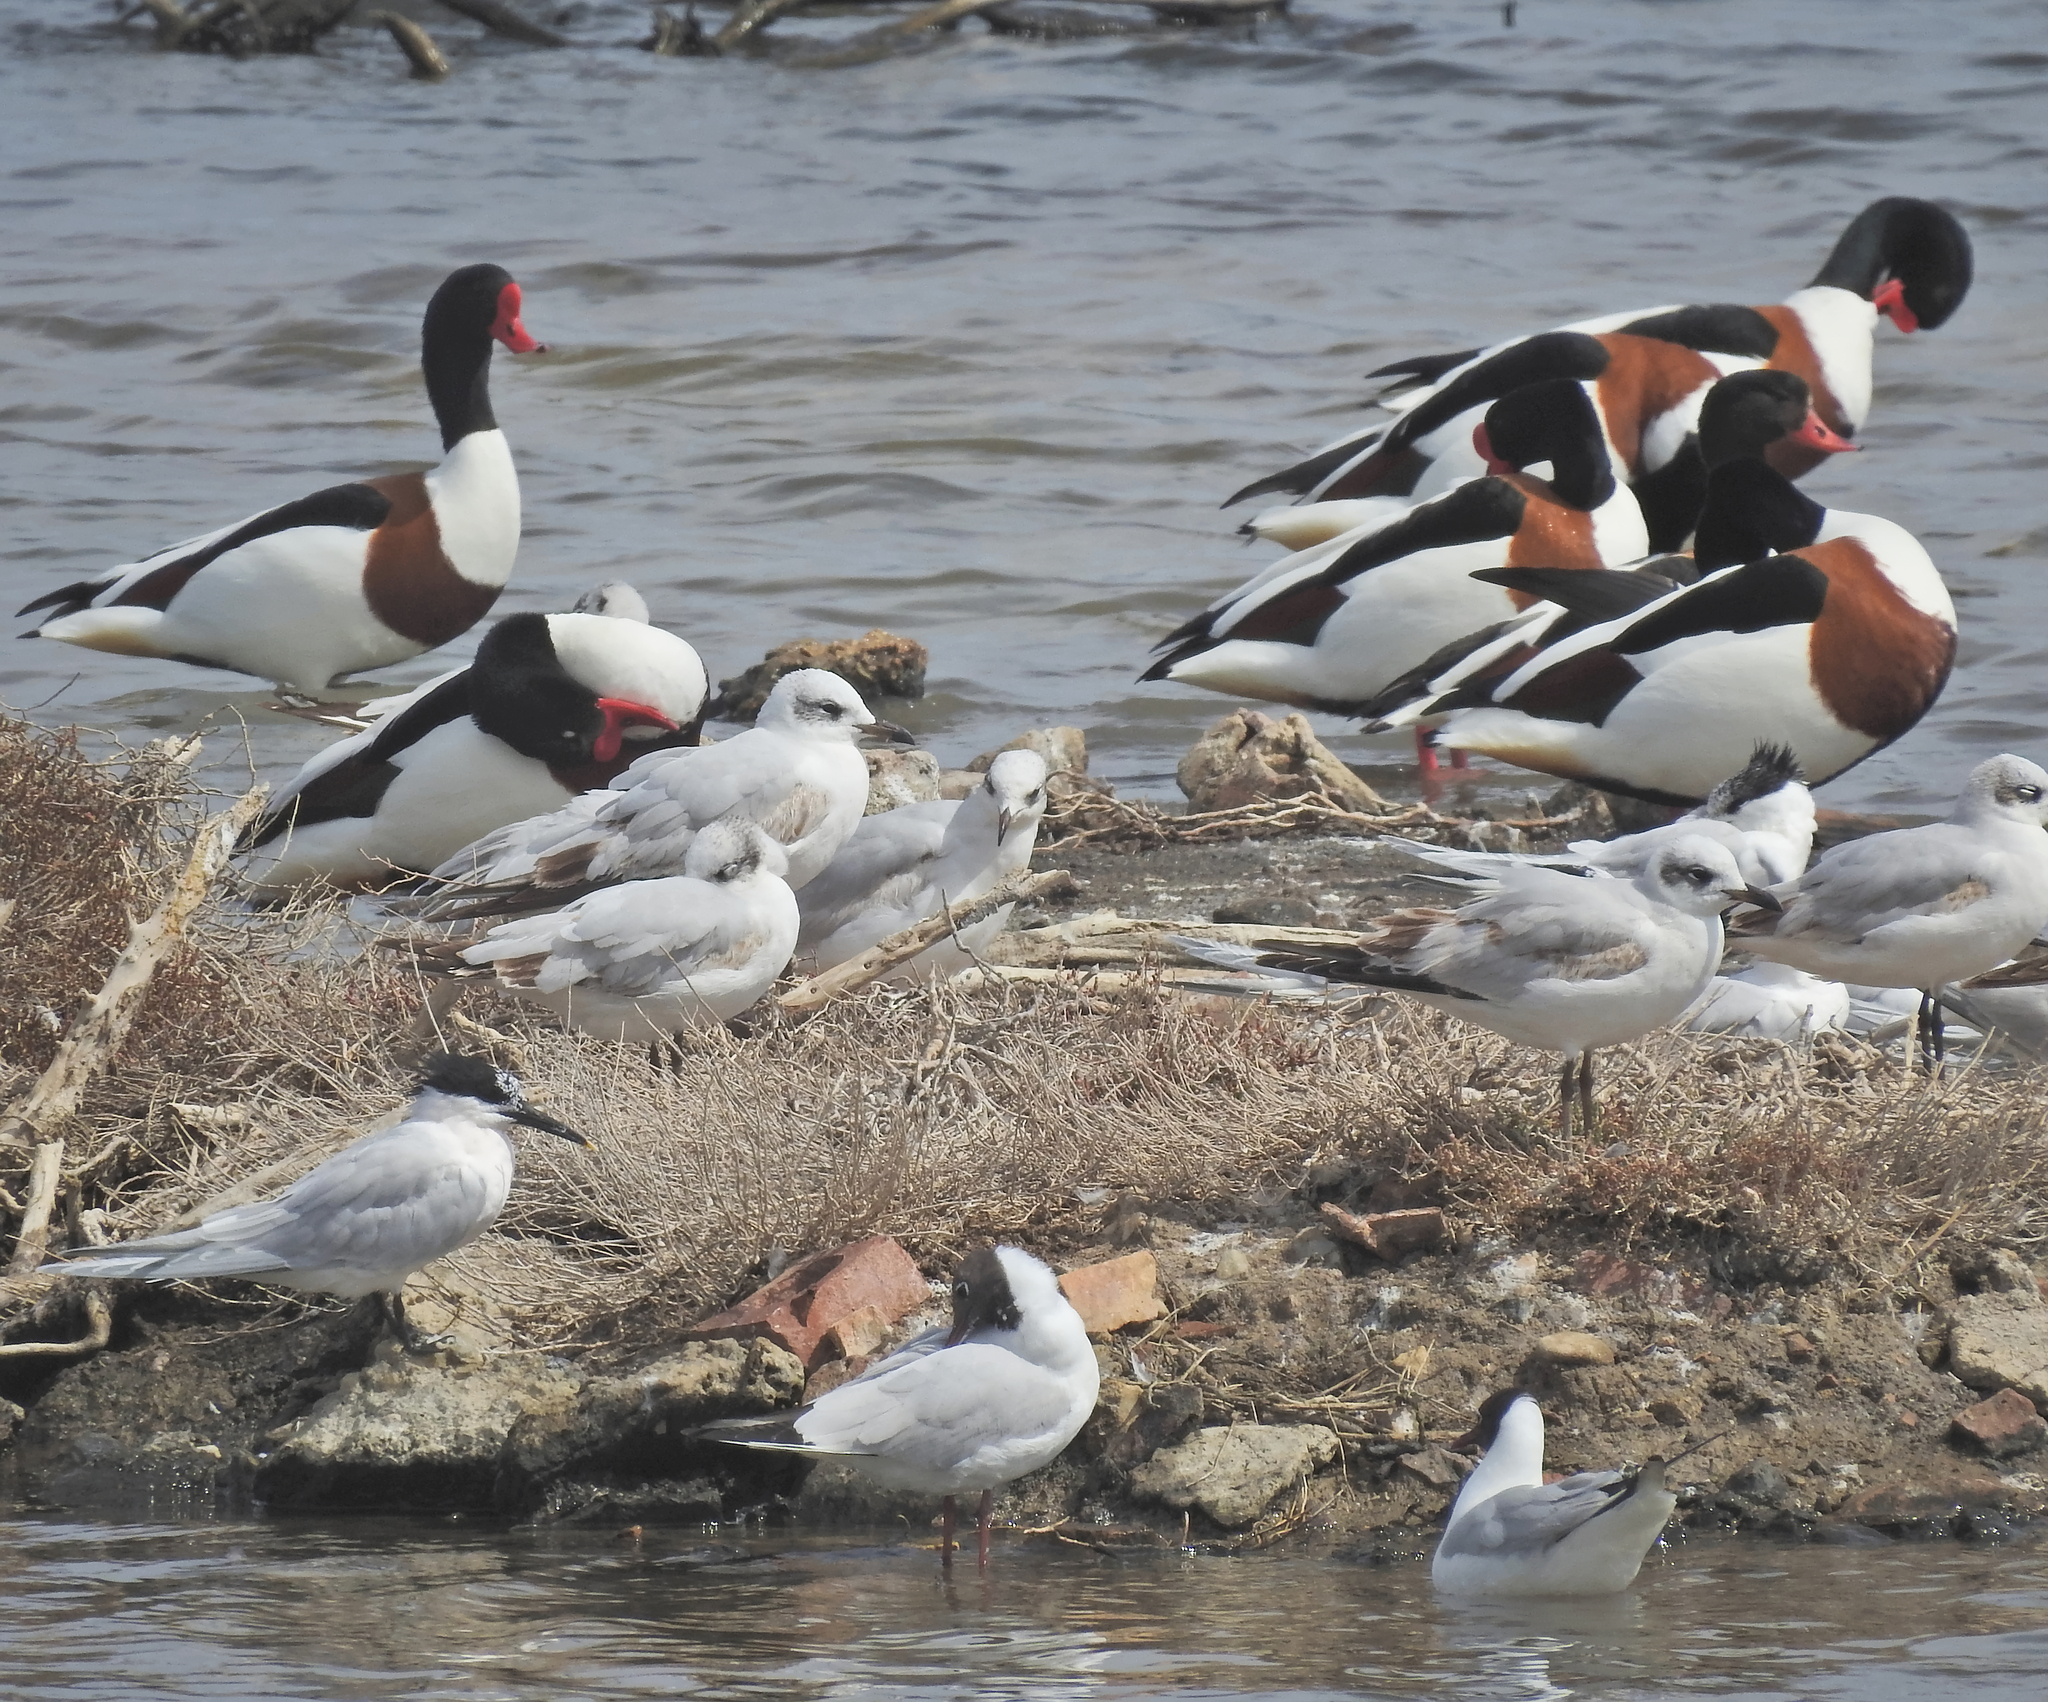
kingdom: Animalia
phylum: Chordata
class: Aves
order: Charadriiformes
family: Laridae
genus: Thalasseus
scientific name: Thalasseus sandvicensis
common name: Sandwich tern
